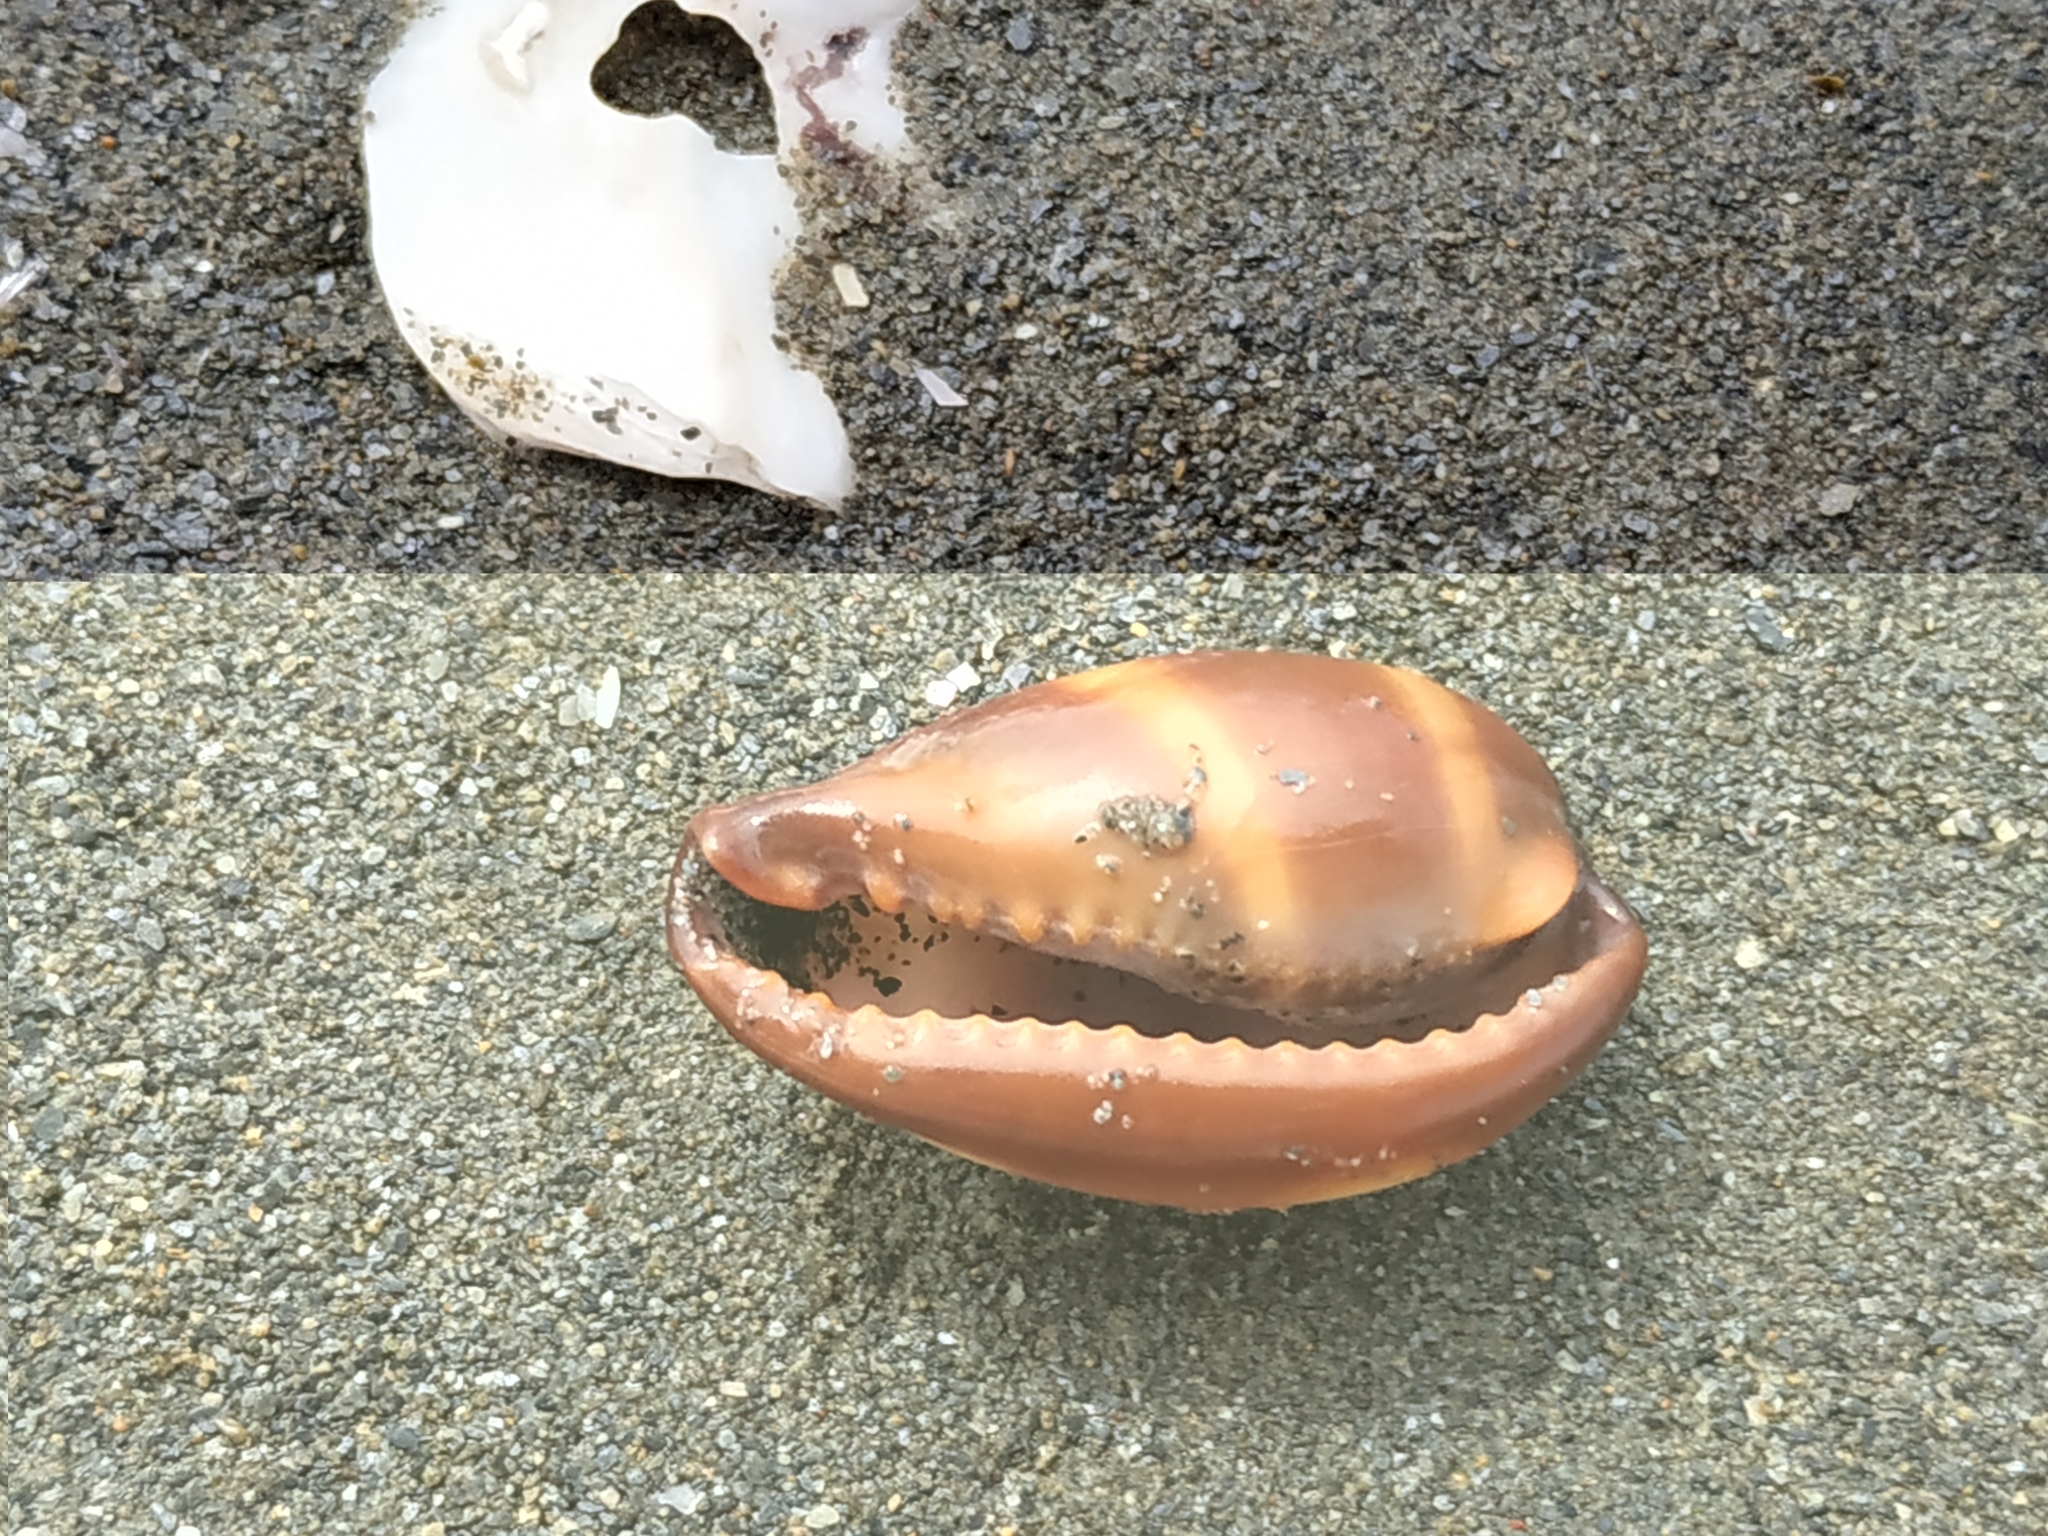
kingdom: Animalia
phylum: Mollusca
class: Gastropoda
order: Littorinimorpha
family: Cypraeidae
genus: Erronea
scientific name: Erronea onyx
